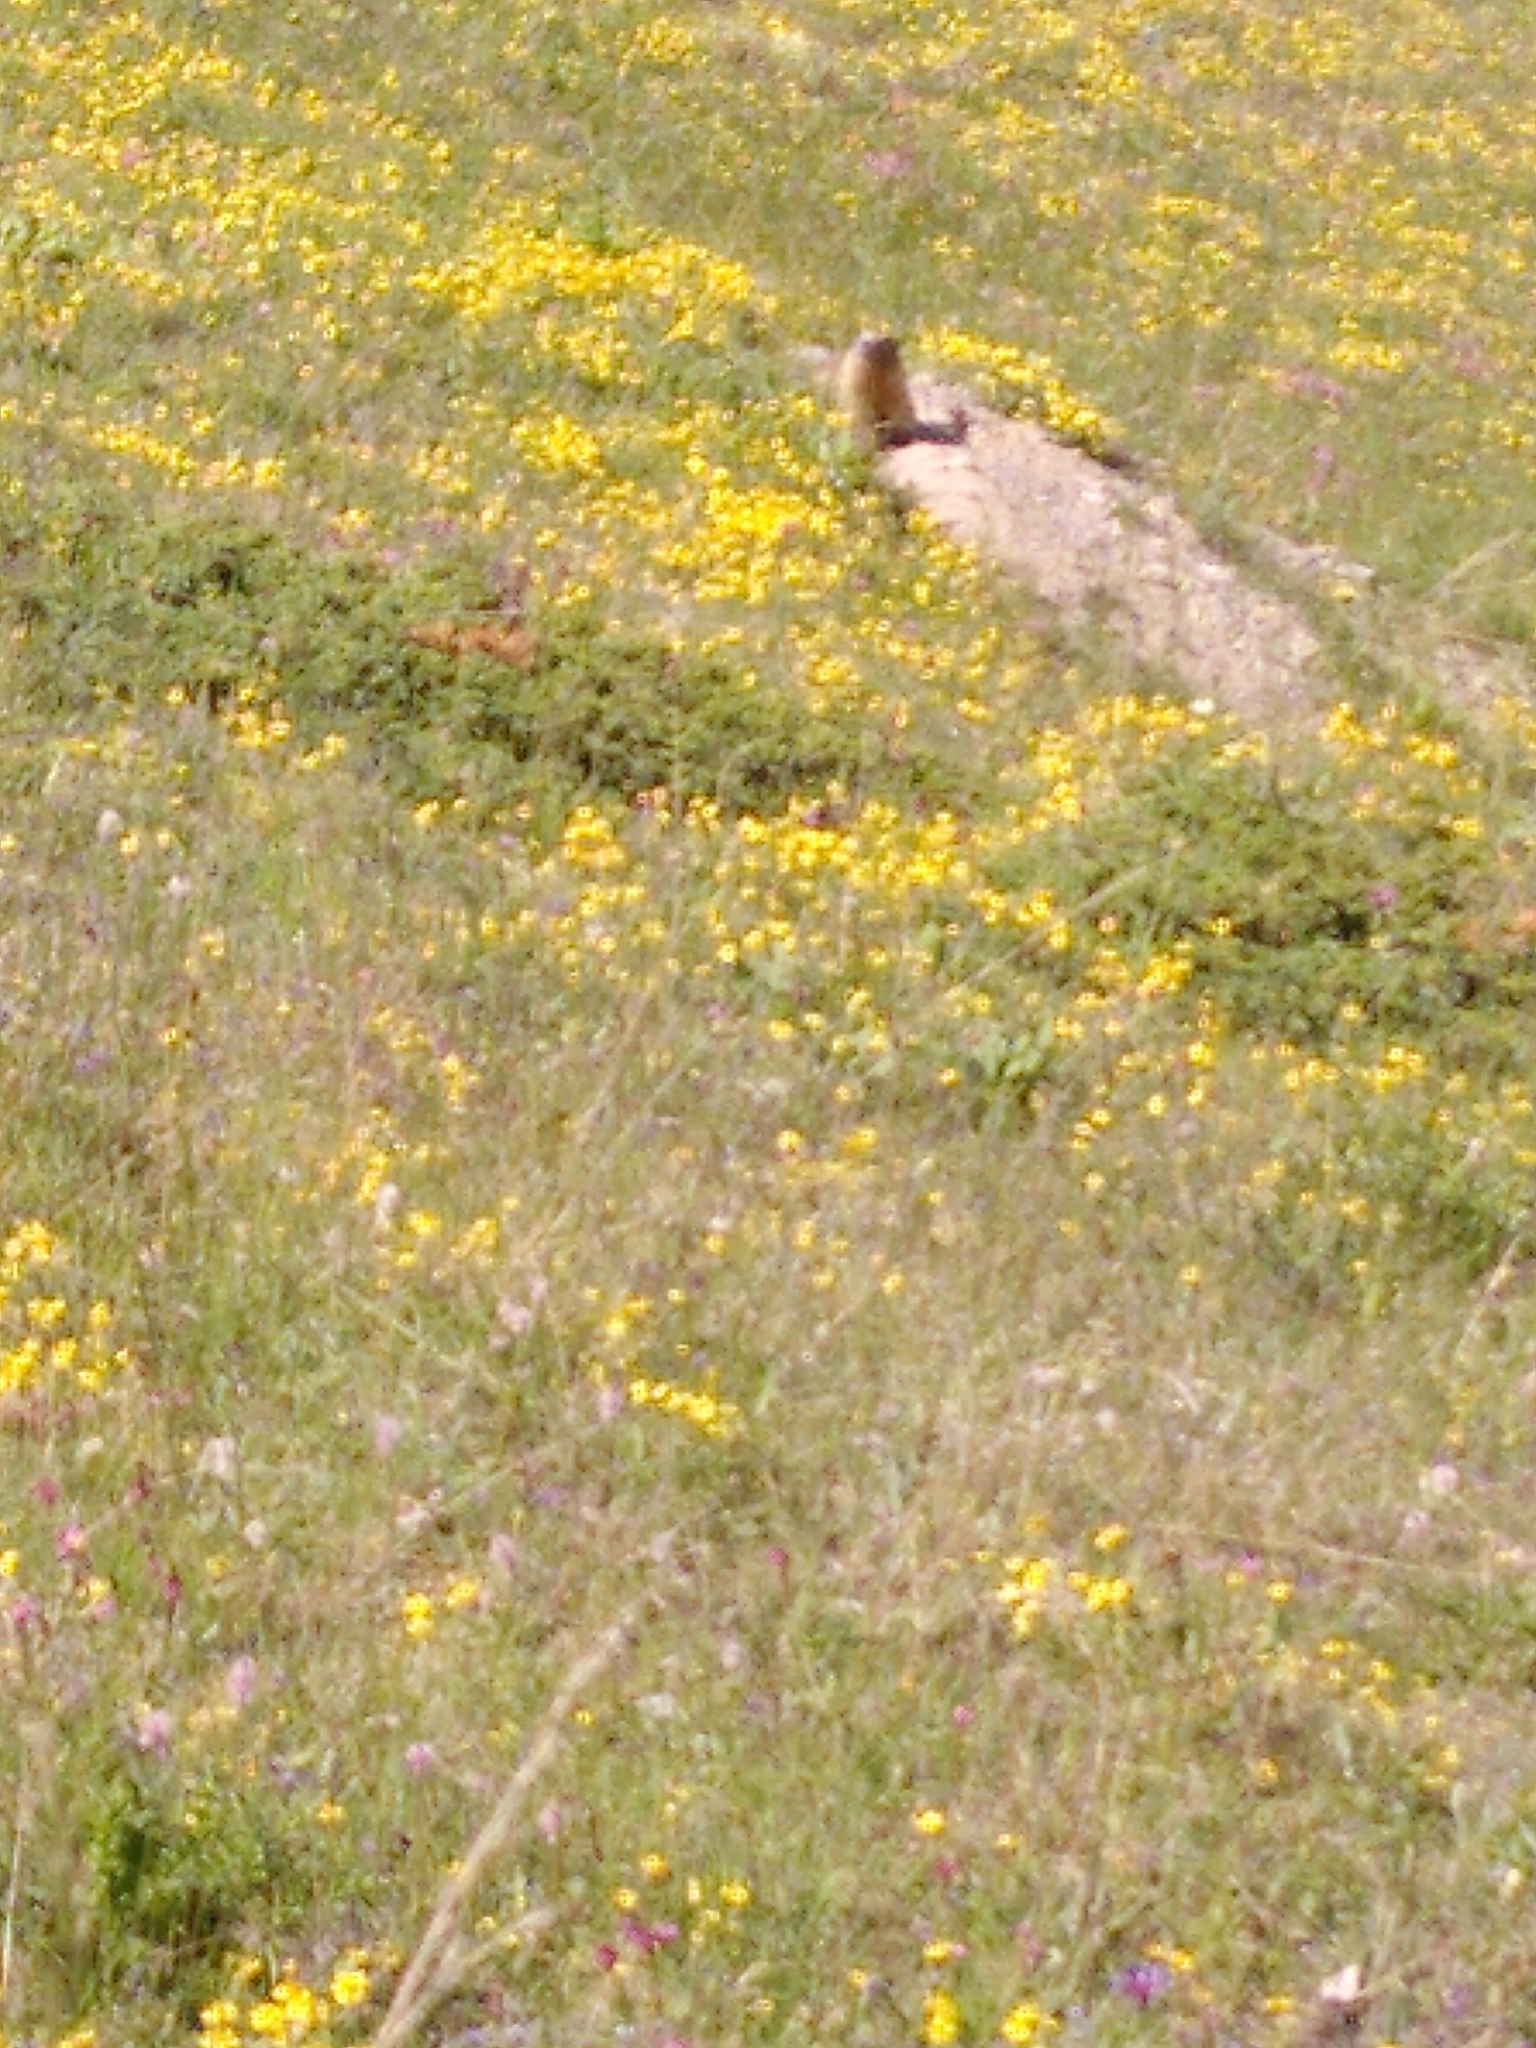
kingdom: Animalia
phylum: Chordata
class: Mammalia
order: Rodentia
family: Sciuridae
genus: Marmota
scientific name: Marmota marmota
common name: Alpine marmot
